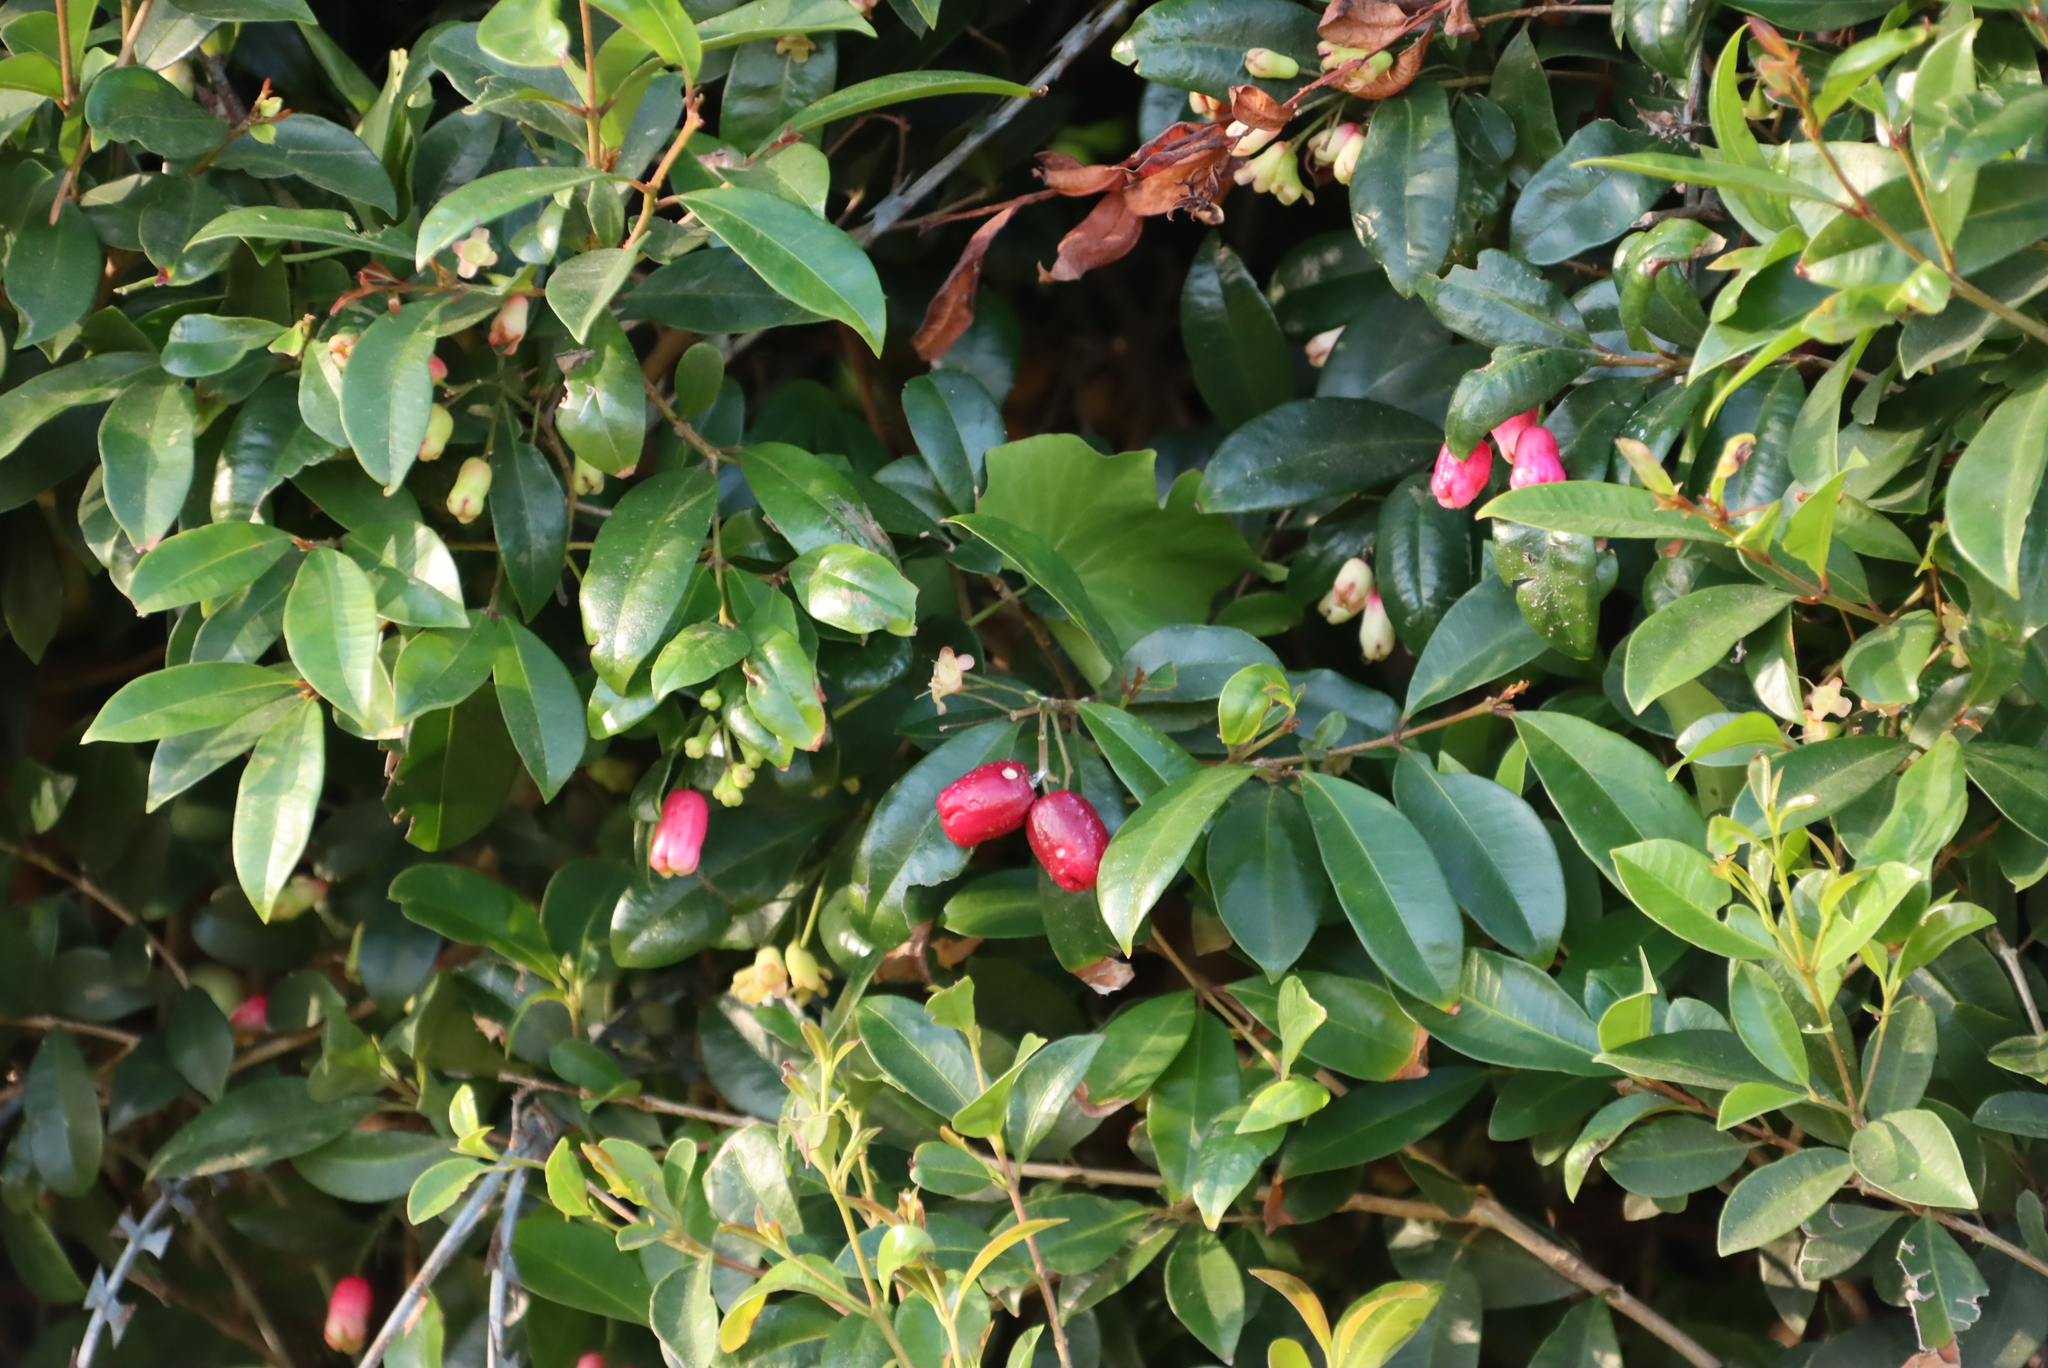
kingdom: Plantae
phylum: Tracheophyta
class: Magnoliopsida
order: Myrtales
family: Myrtaceae
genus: Syzygium
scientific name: Syzygium australe
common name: Australian brush-cherry
